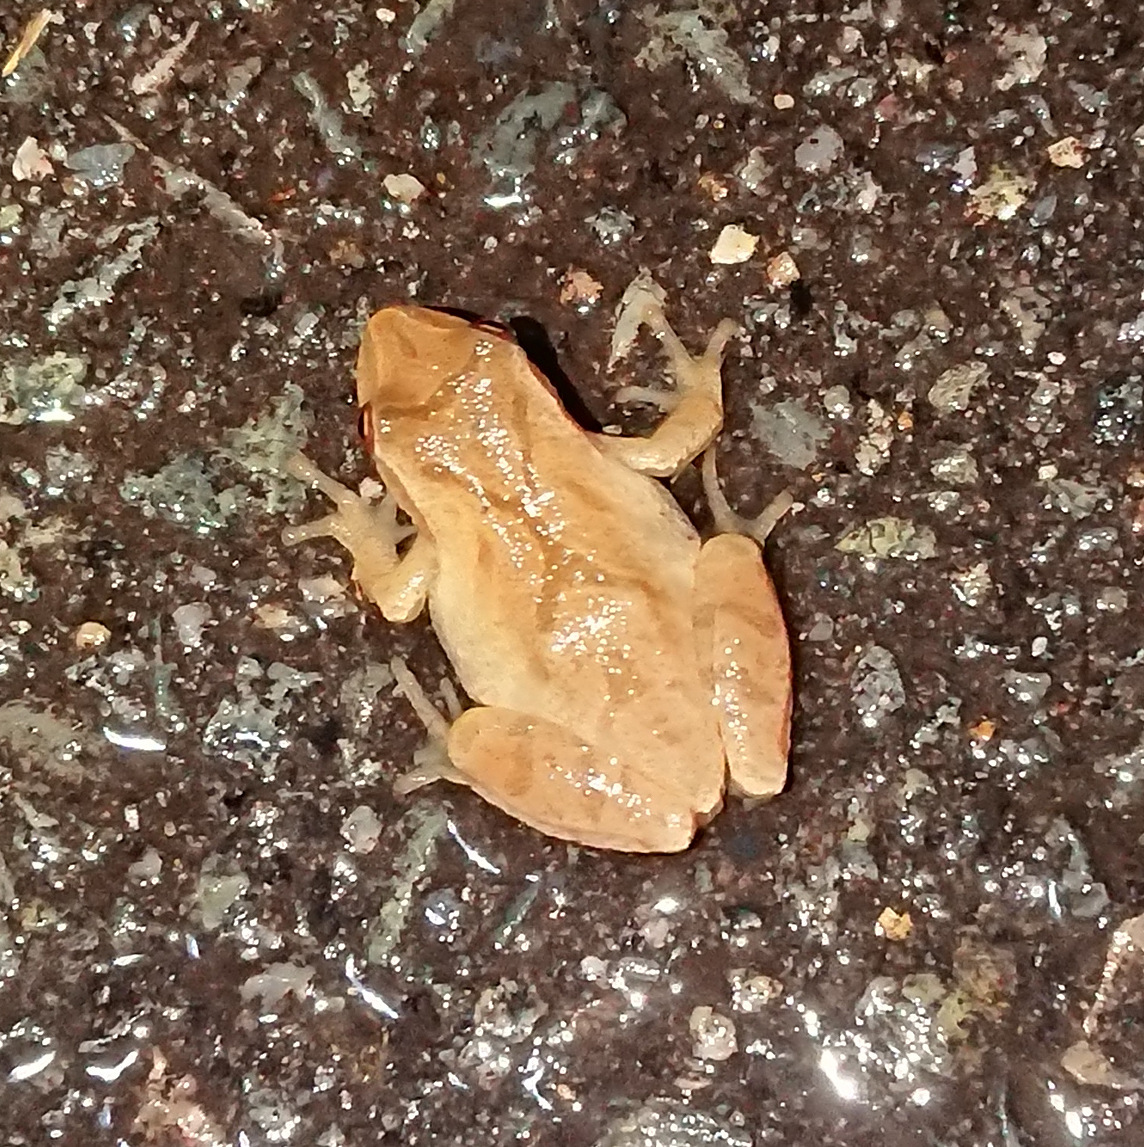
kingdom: Animalia
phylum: Chordata
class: Amphibia
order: Anura
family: Hylidae
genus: Pseudacris
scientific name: Pseudacris crucifer
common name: Spring peeper
